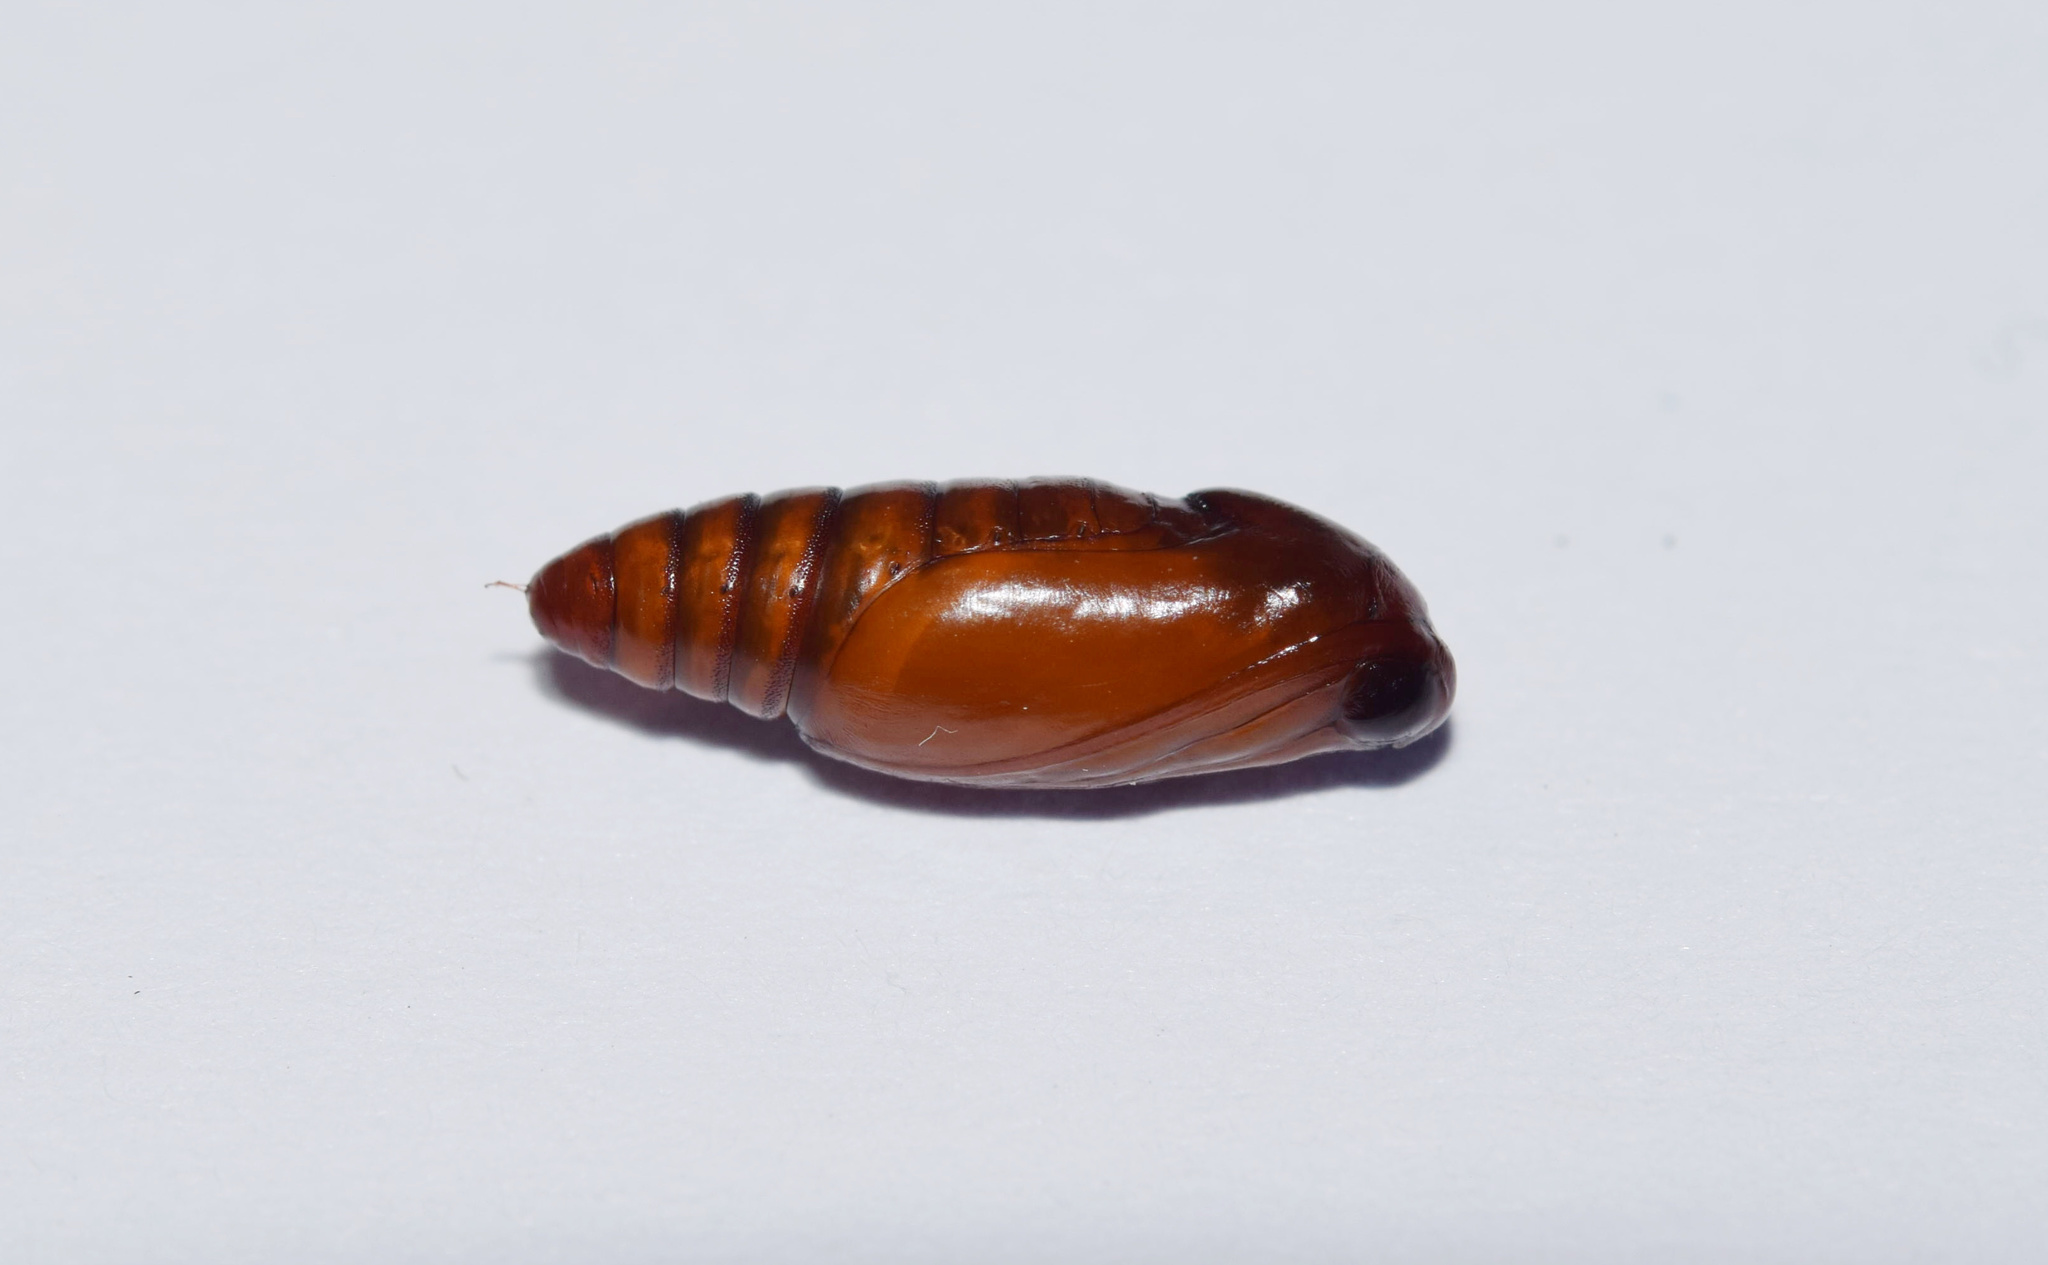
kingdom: Animalia
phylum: Arthropoda
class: Insecta
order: Lepidoptera
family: Erebidae
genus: Bertula
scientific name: Bertula inconspicua
